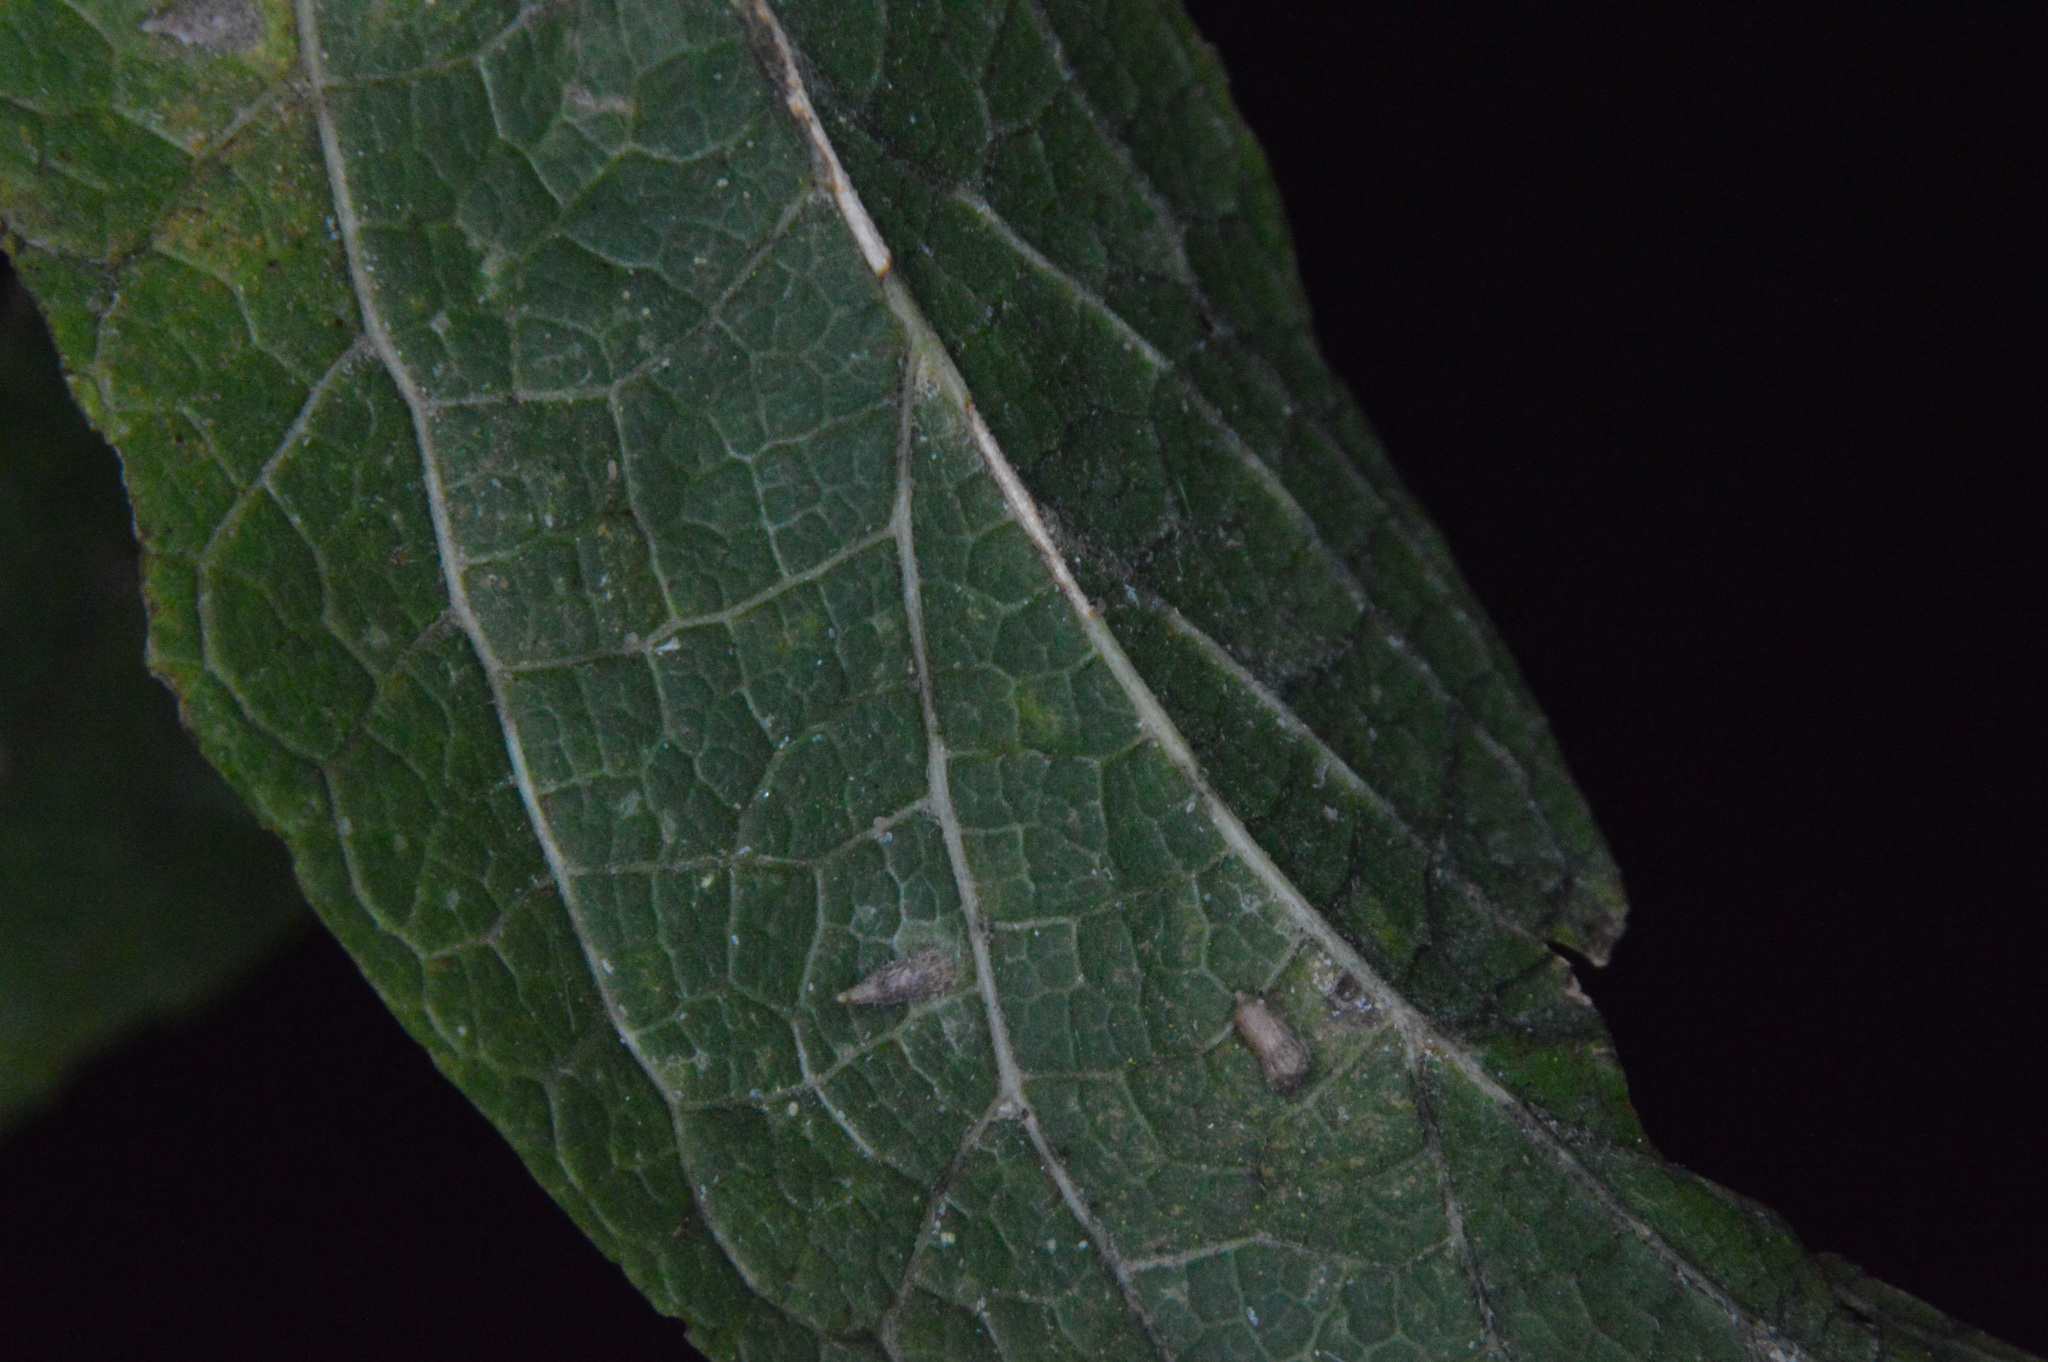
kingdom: Animalia
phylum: Arthropoda
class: Insecta
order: Diptera
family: Cecidomyiidae
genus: Celticecis
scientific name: Celticecis supina
